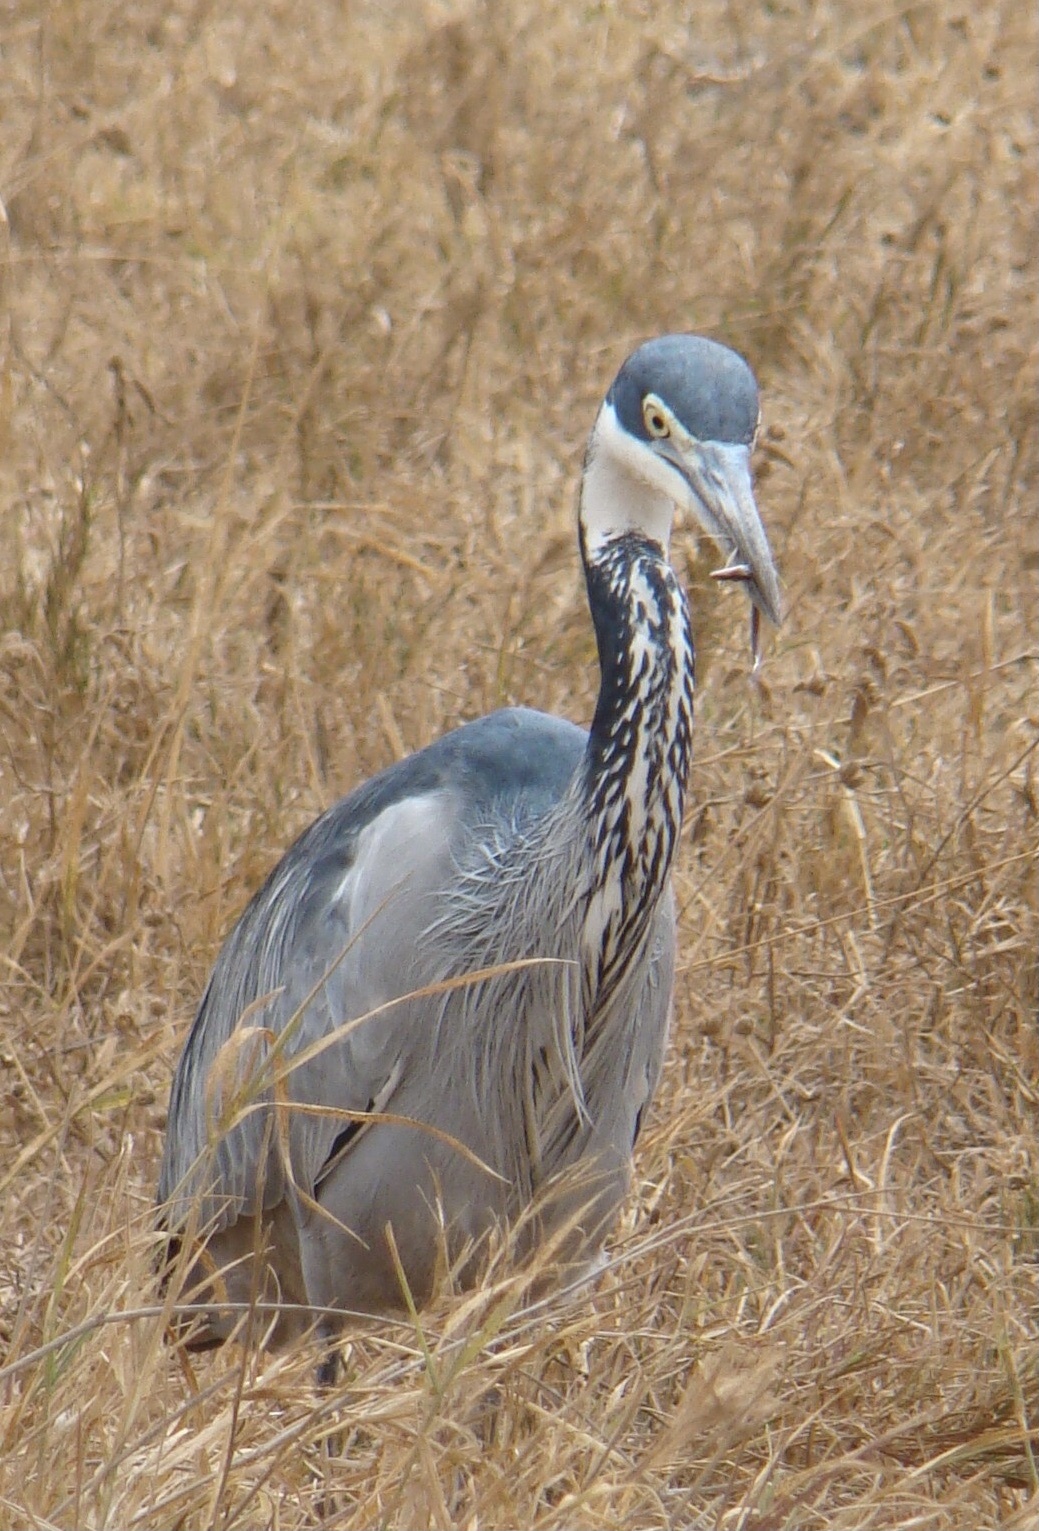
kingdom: Animalia
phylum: Chordata
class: Aves
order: Pelecaniformes
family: Ardeidae
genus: Ardea
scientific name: Ardea melanocephala
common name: Black-headed heron
